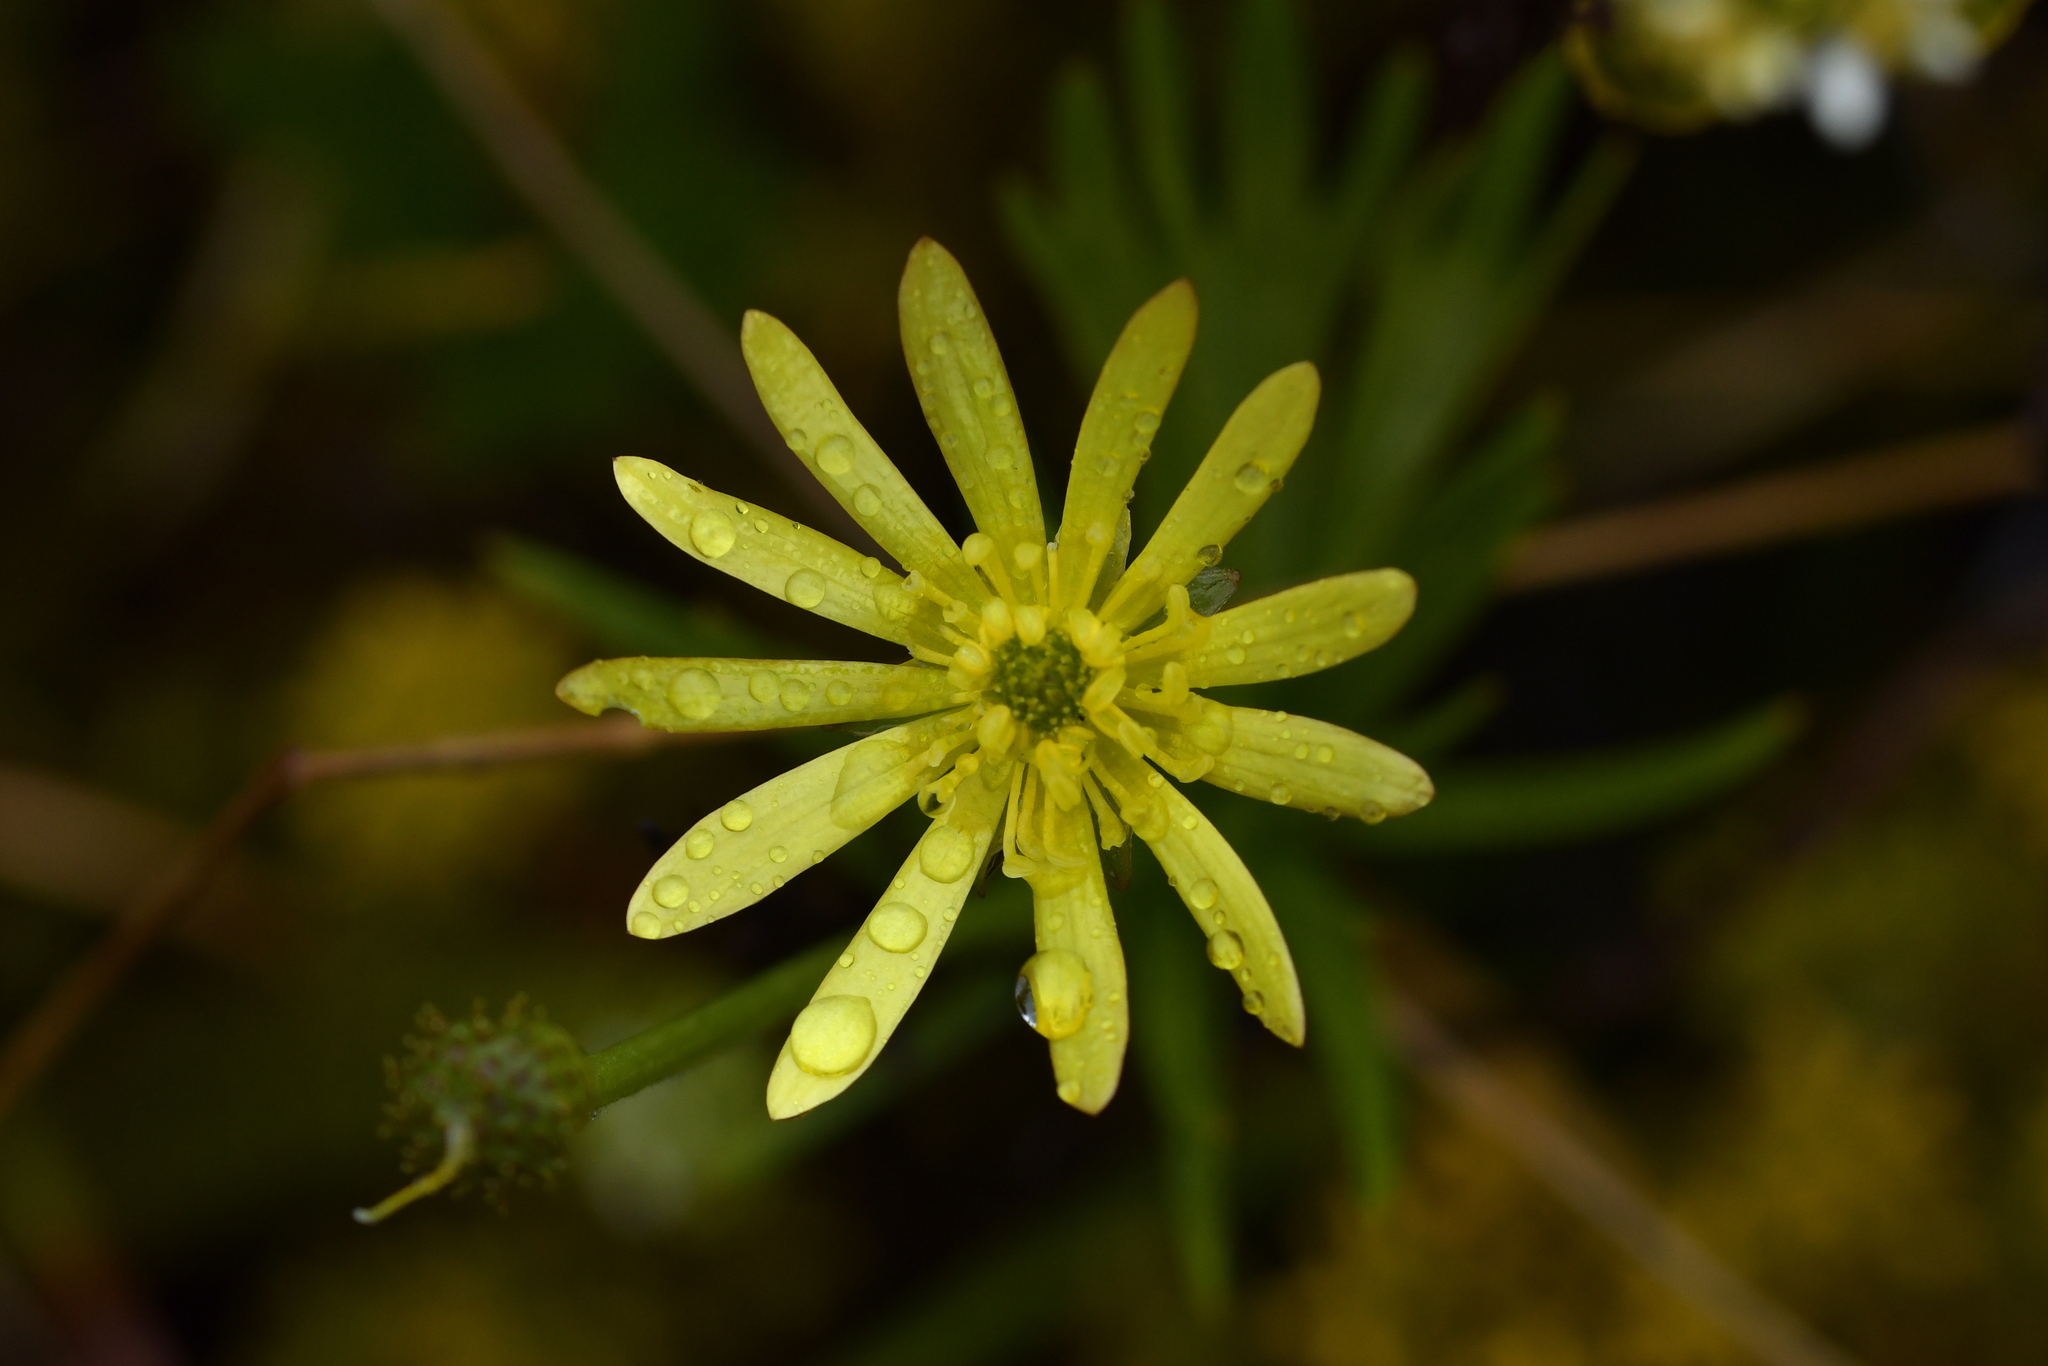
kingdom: Plantae
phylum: Tracheophyta
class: Magnoliopsida
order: Ranunculales
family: Ranunculaceae
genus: Ranunculus
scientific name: Ranunculus verticillatus
